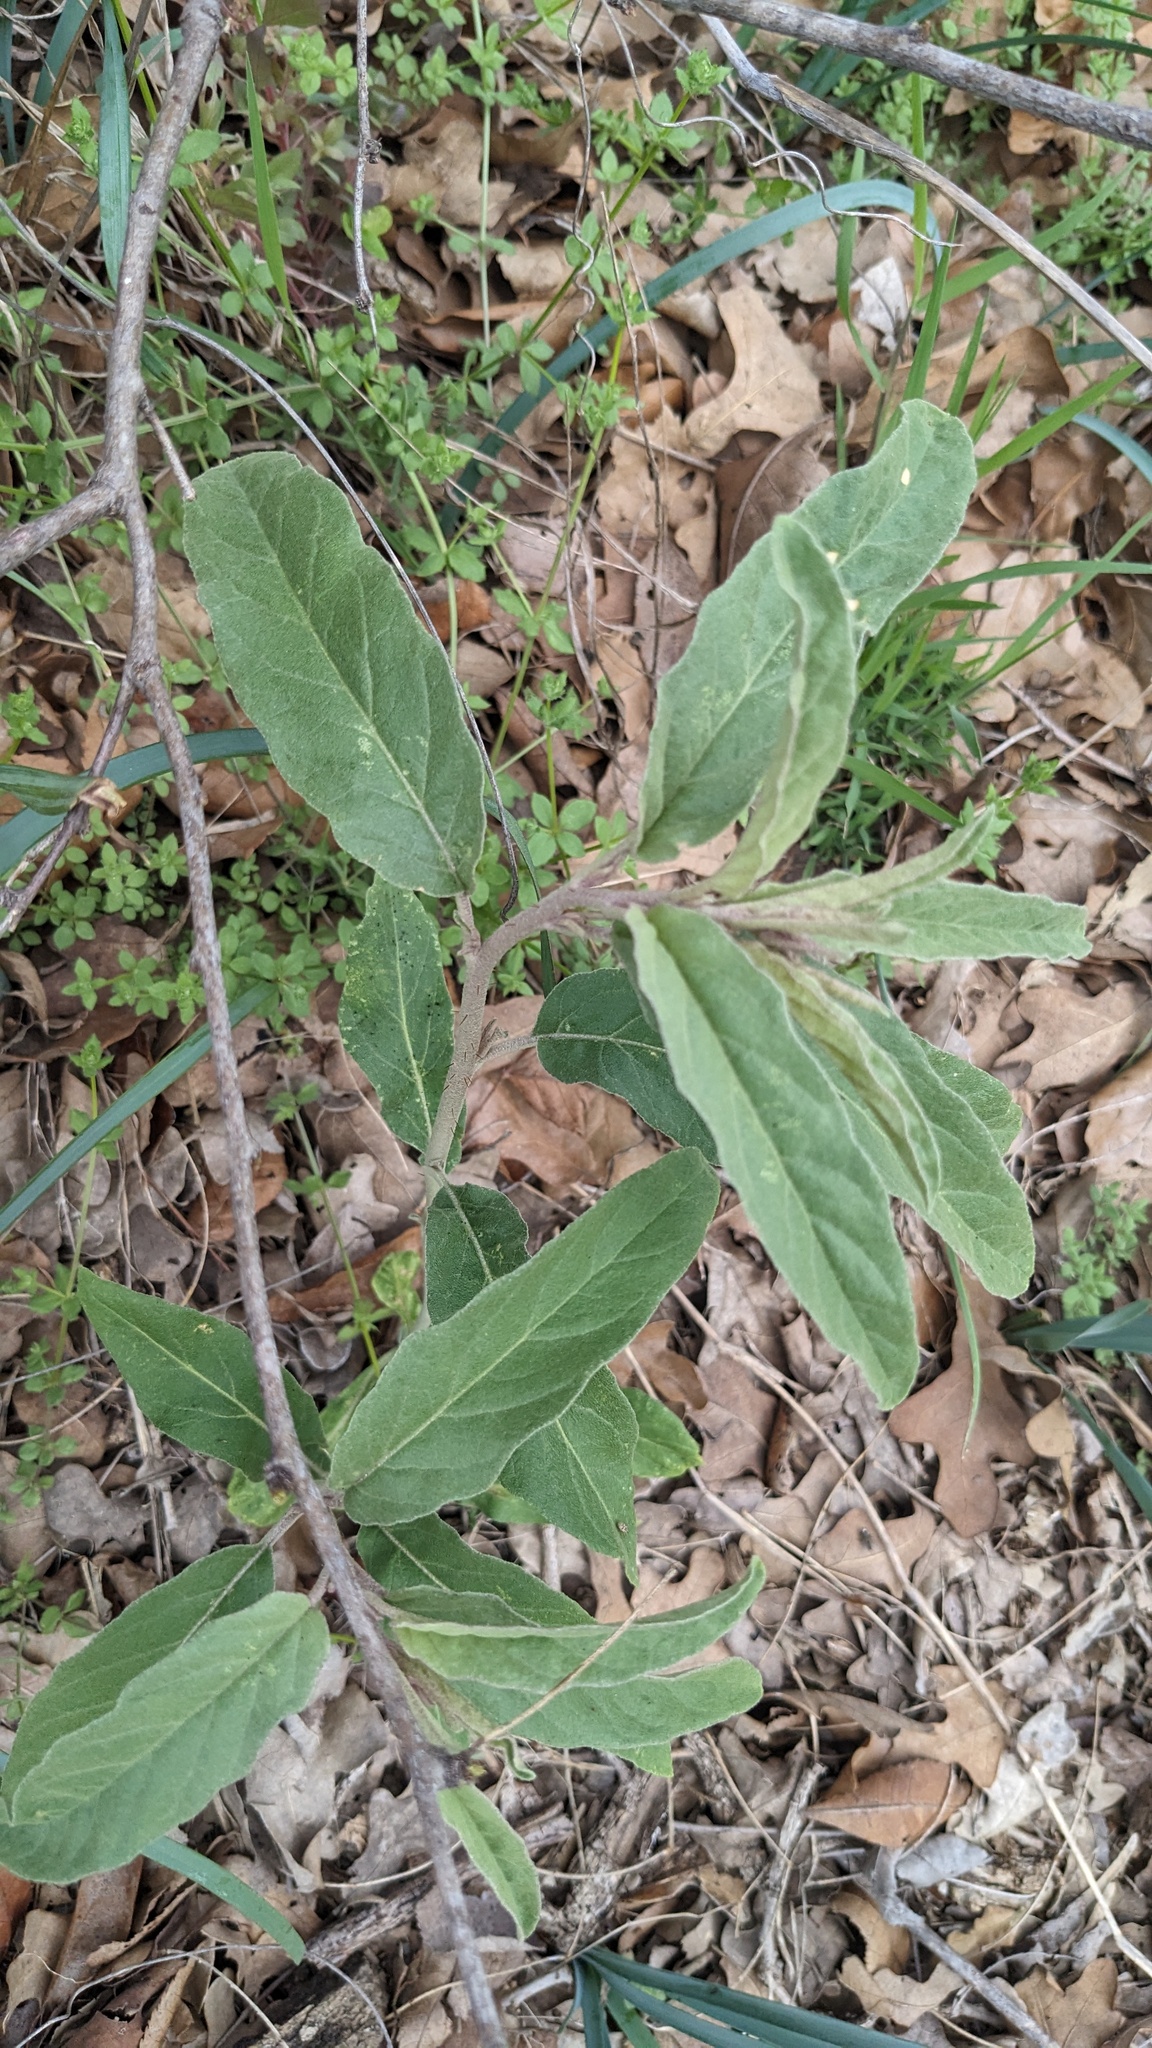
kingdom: Plantae
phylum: Tracheophyta
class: Magnoliopsida
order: Solanales
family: Solanaceae
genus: Solanum
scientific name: Solanum elaeagnifolium
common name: Silverleaf nightshade
